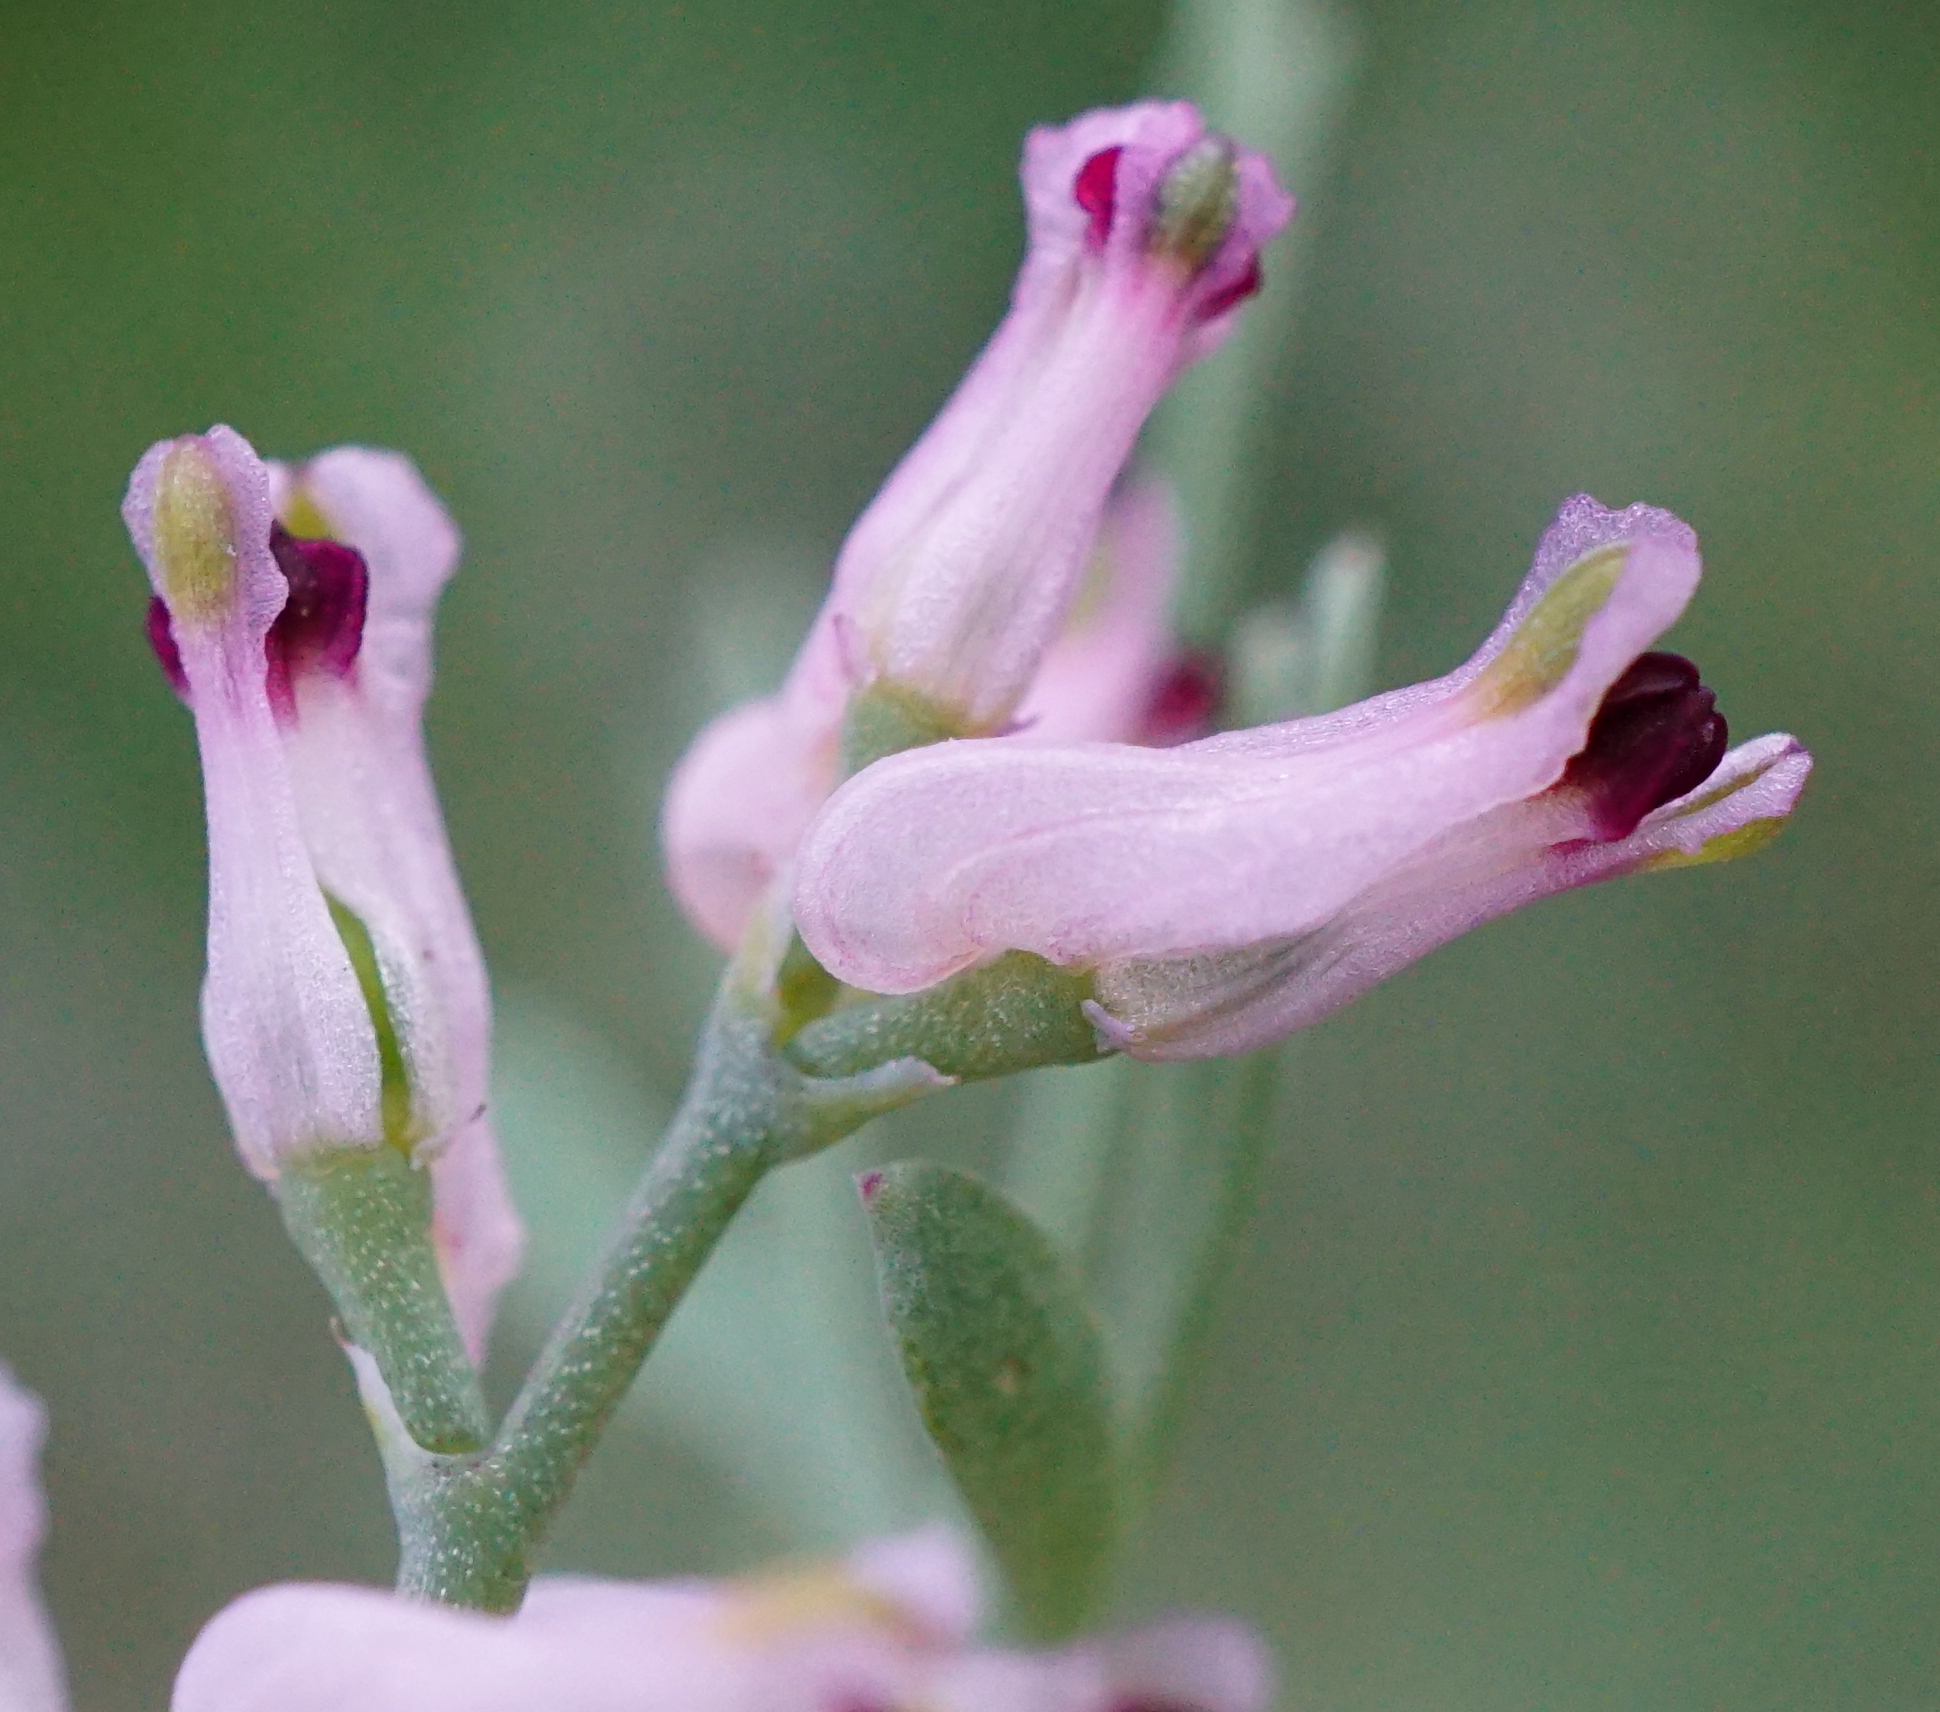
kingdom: Plantae
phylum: Tracheophyta
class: Magnoliopsida
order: Ranunculales
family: Papaveraceae
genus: Fumaria
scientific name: Fumaria vaillantii
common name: Few-flowered fumitory
